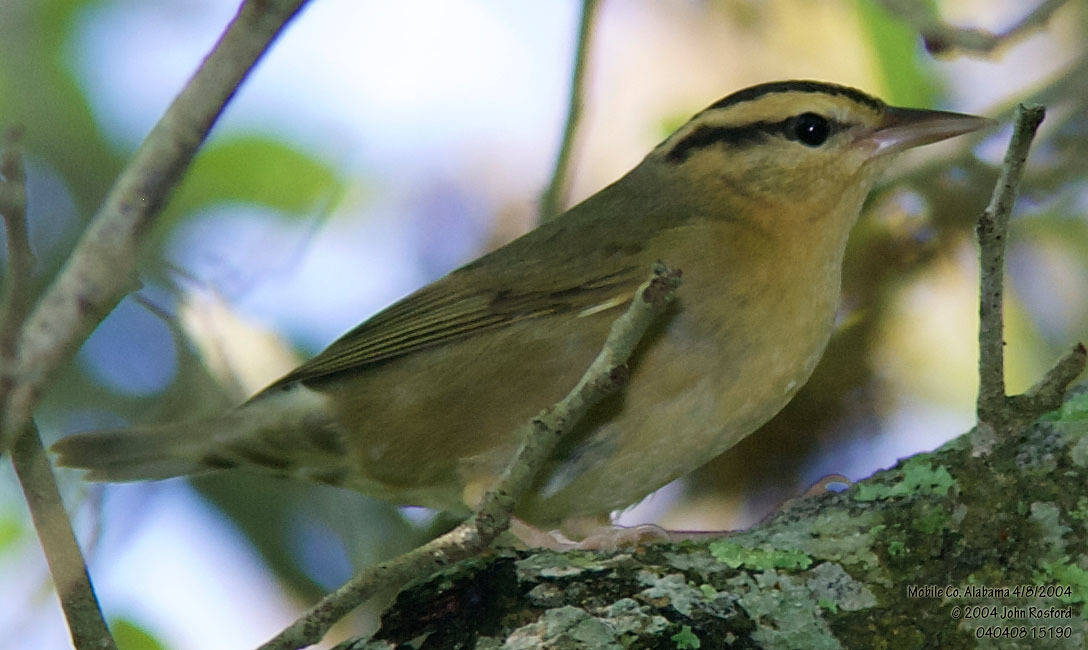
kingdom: Animalia
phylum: Chordata
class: Aves
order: Passeriformes
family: Parulidae
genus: Helmitheros
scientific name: Helmitheros vermivorum
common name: Worm-eating warbler
